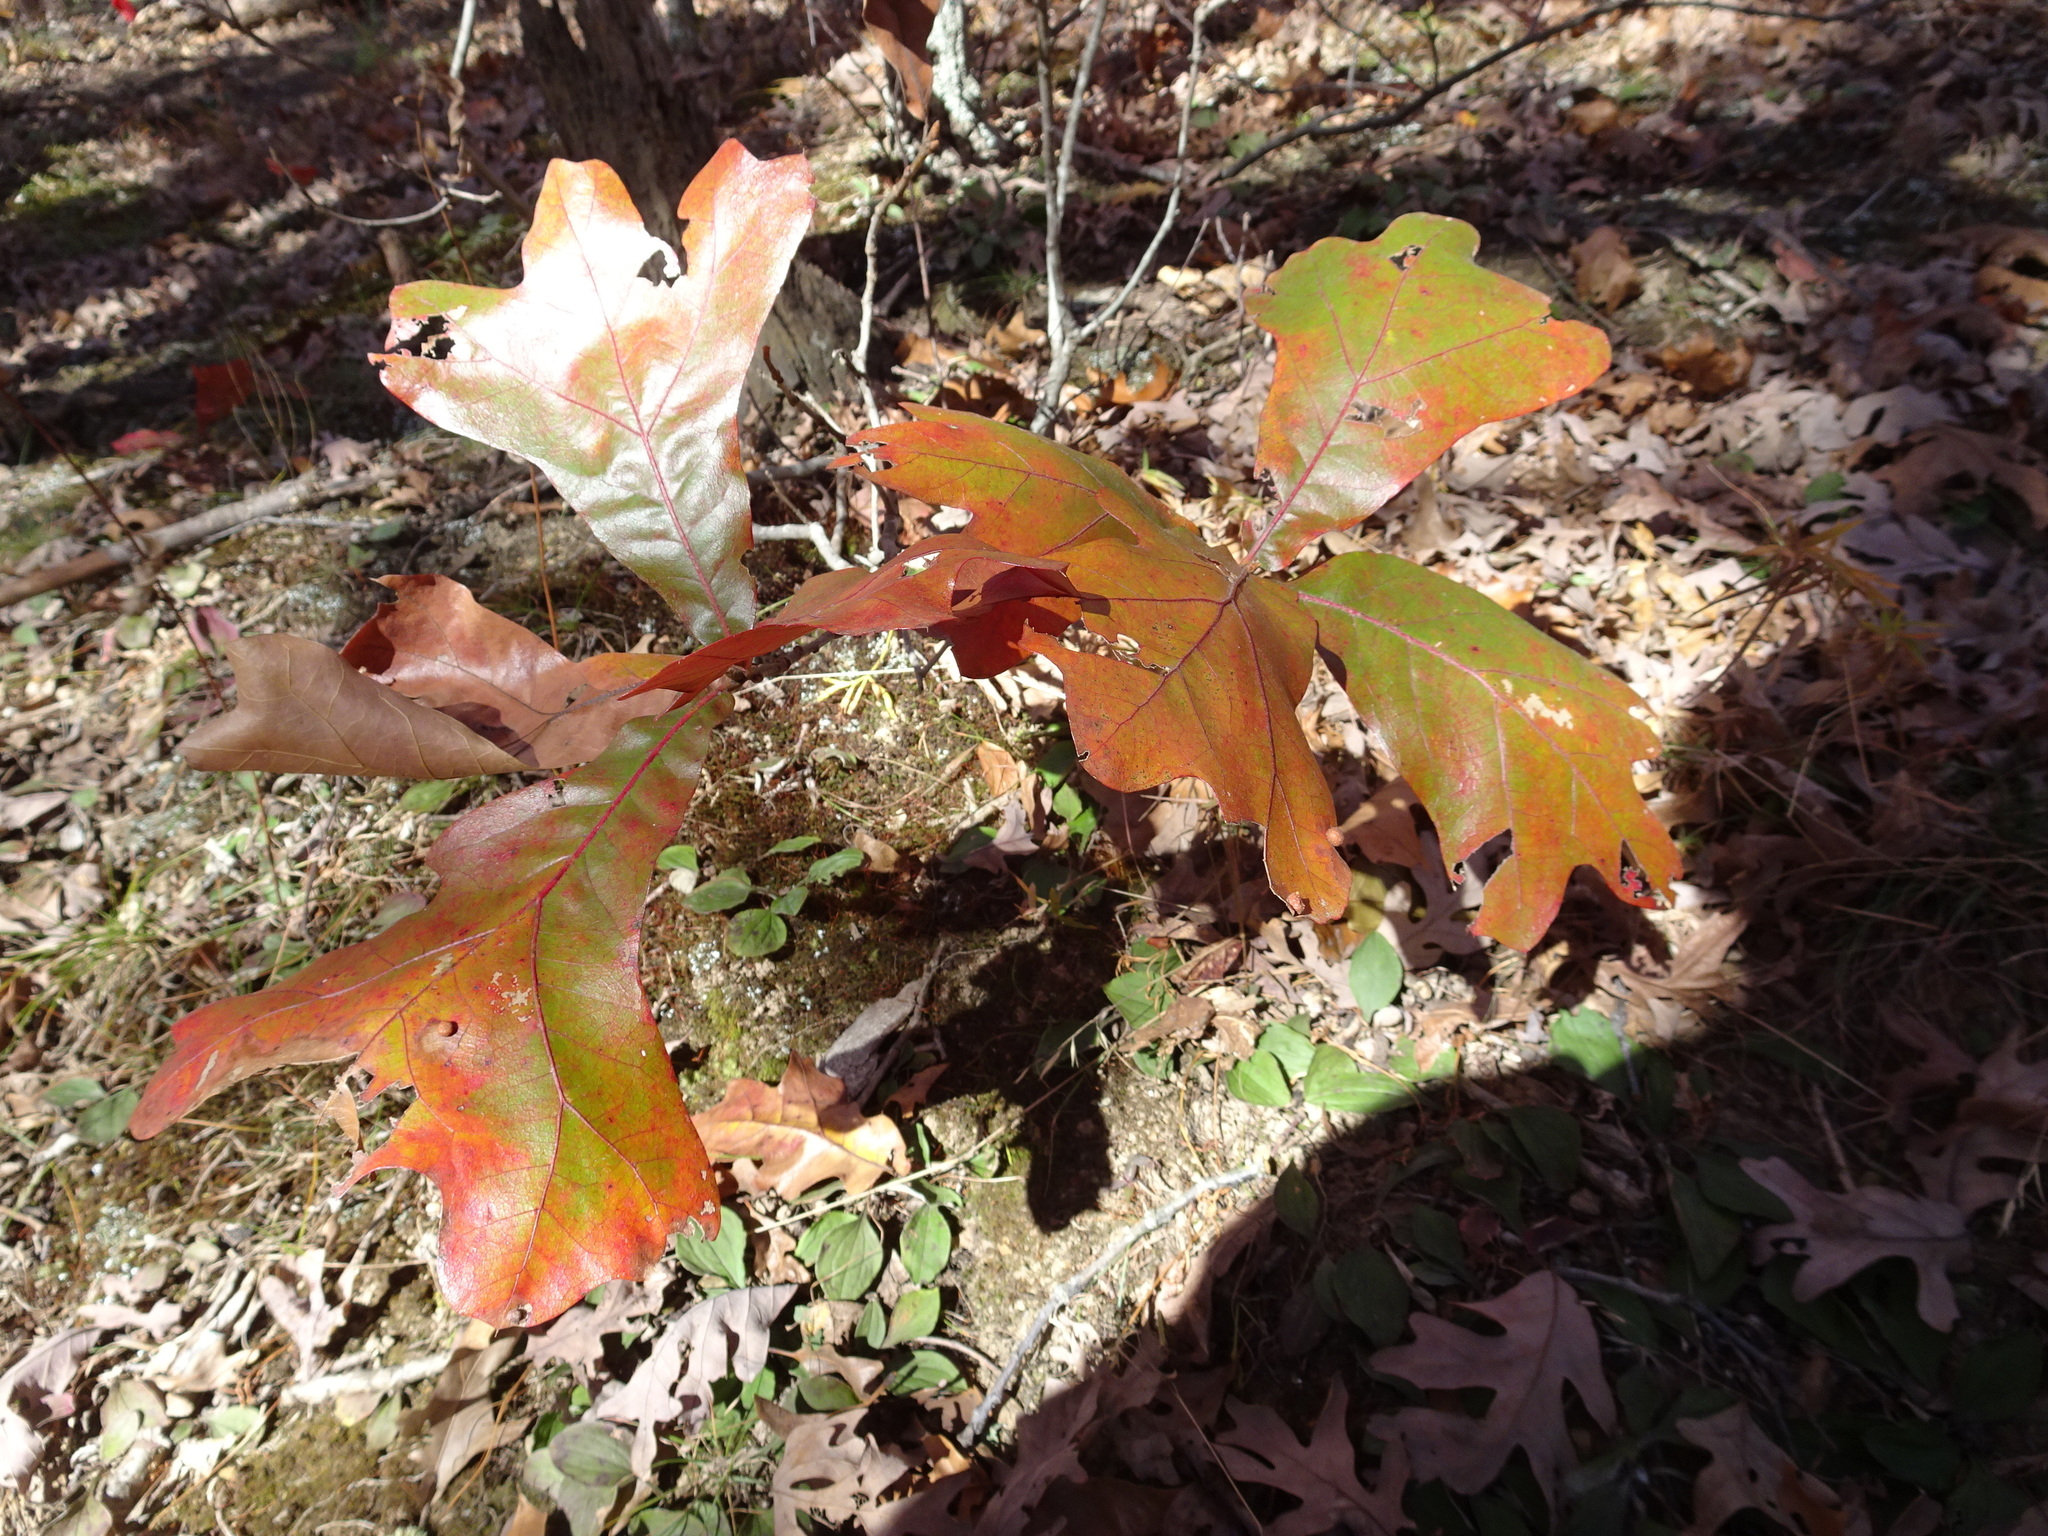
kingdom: Plantae
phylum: Tracheophyta
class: Magnoliopsida
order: Fagales
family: Fagaceae
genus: Quercus
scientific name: Quercus marilandica
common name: Blackjack oak
